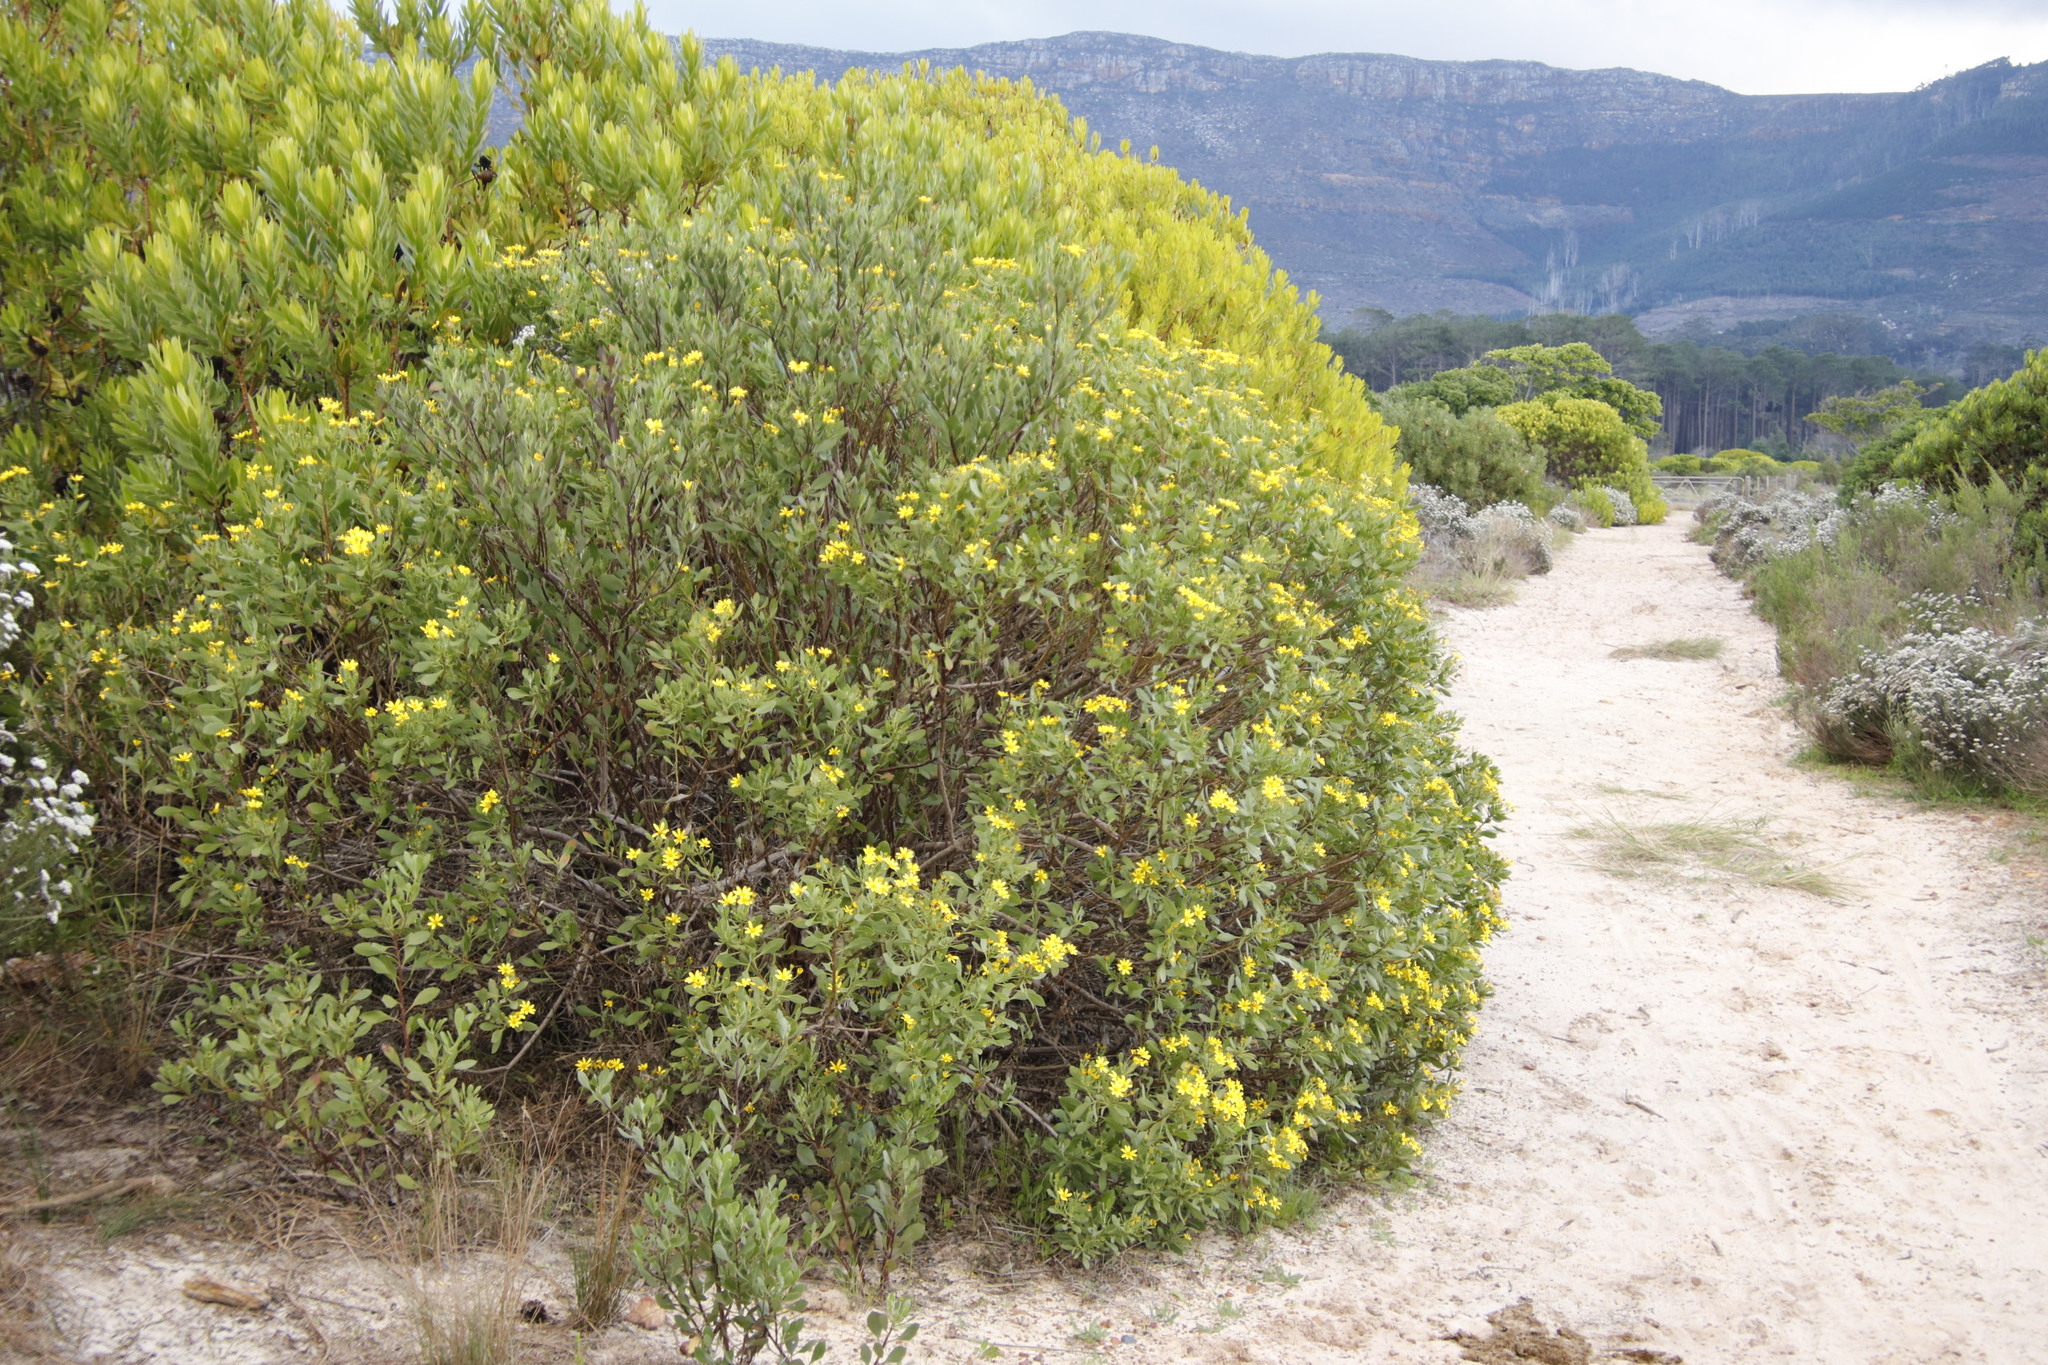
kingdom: Plantae
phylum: Tracheophyta
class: Magnoliopsida
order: Asterales
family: Asteraceae
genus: Osteospermum
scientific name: Osteospermum moniliferum
